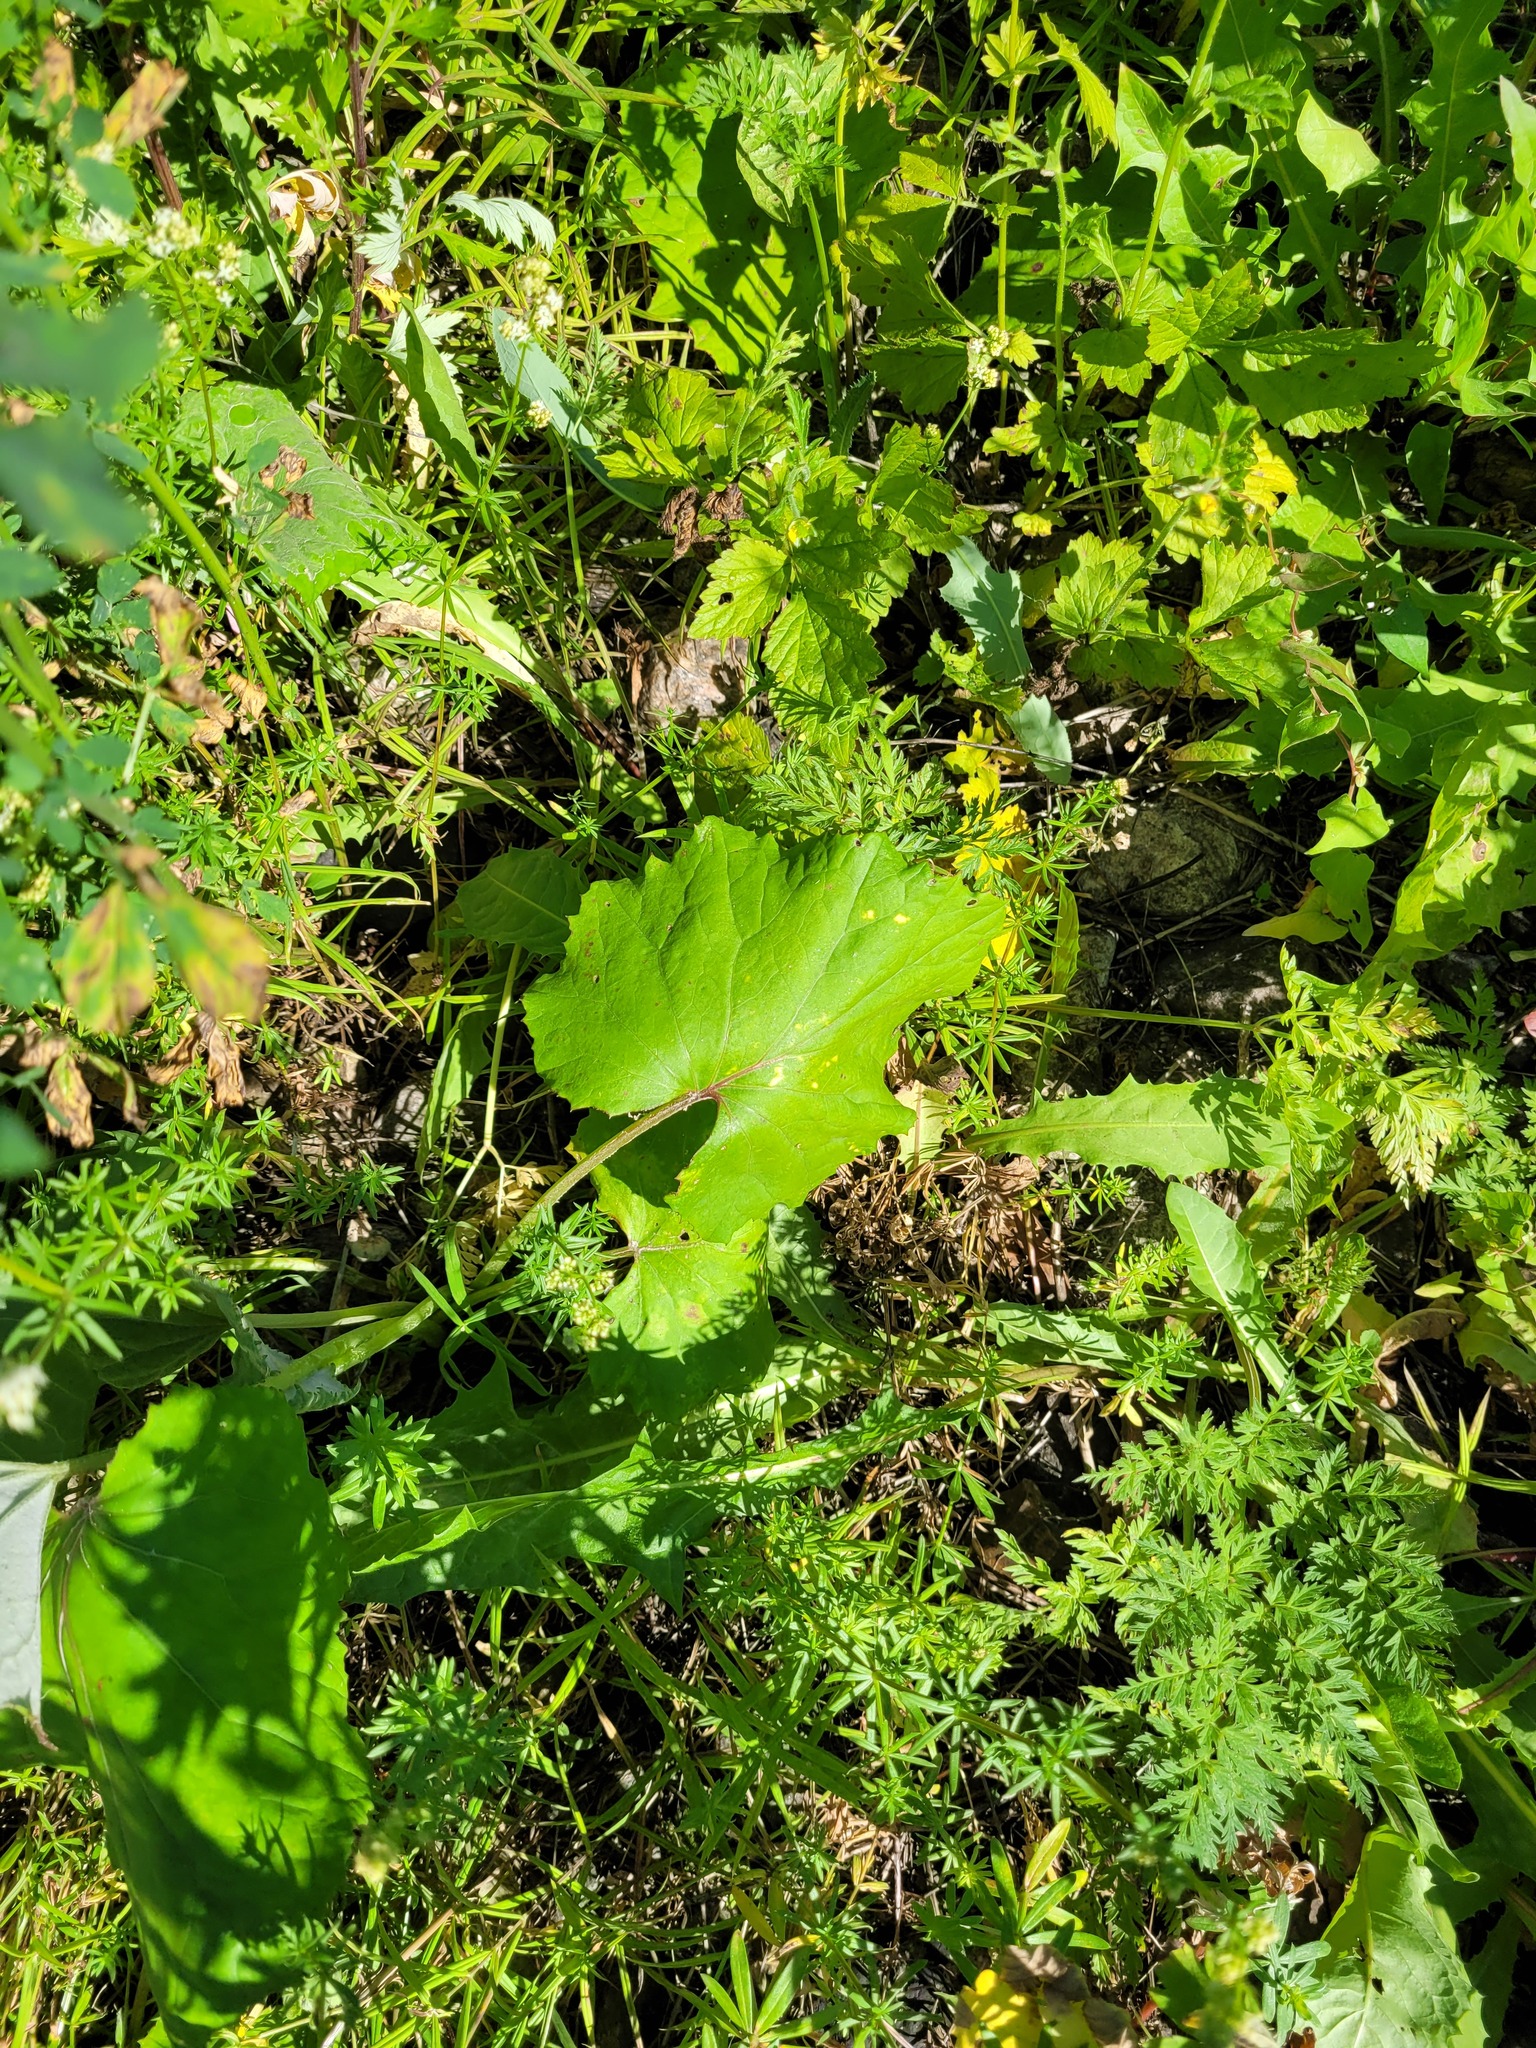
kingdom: Plantae
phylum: Tracheophyta
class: Magnoliopsida
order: Asterales
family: Asteraceae
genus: Tussilago
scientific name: Tussilago farfara
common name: Coltsfoot
